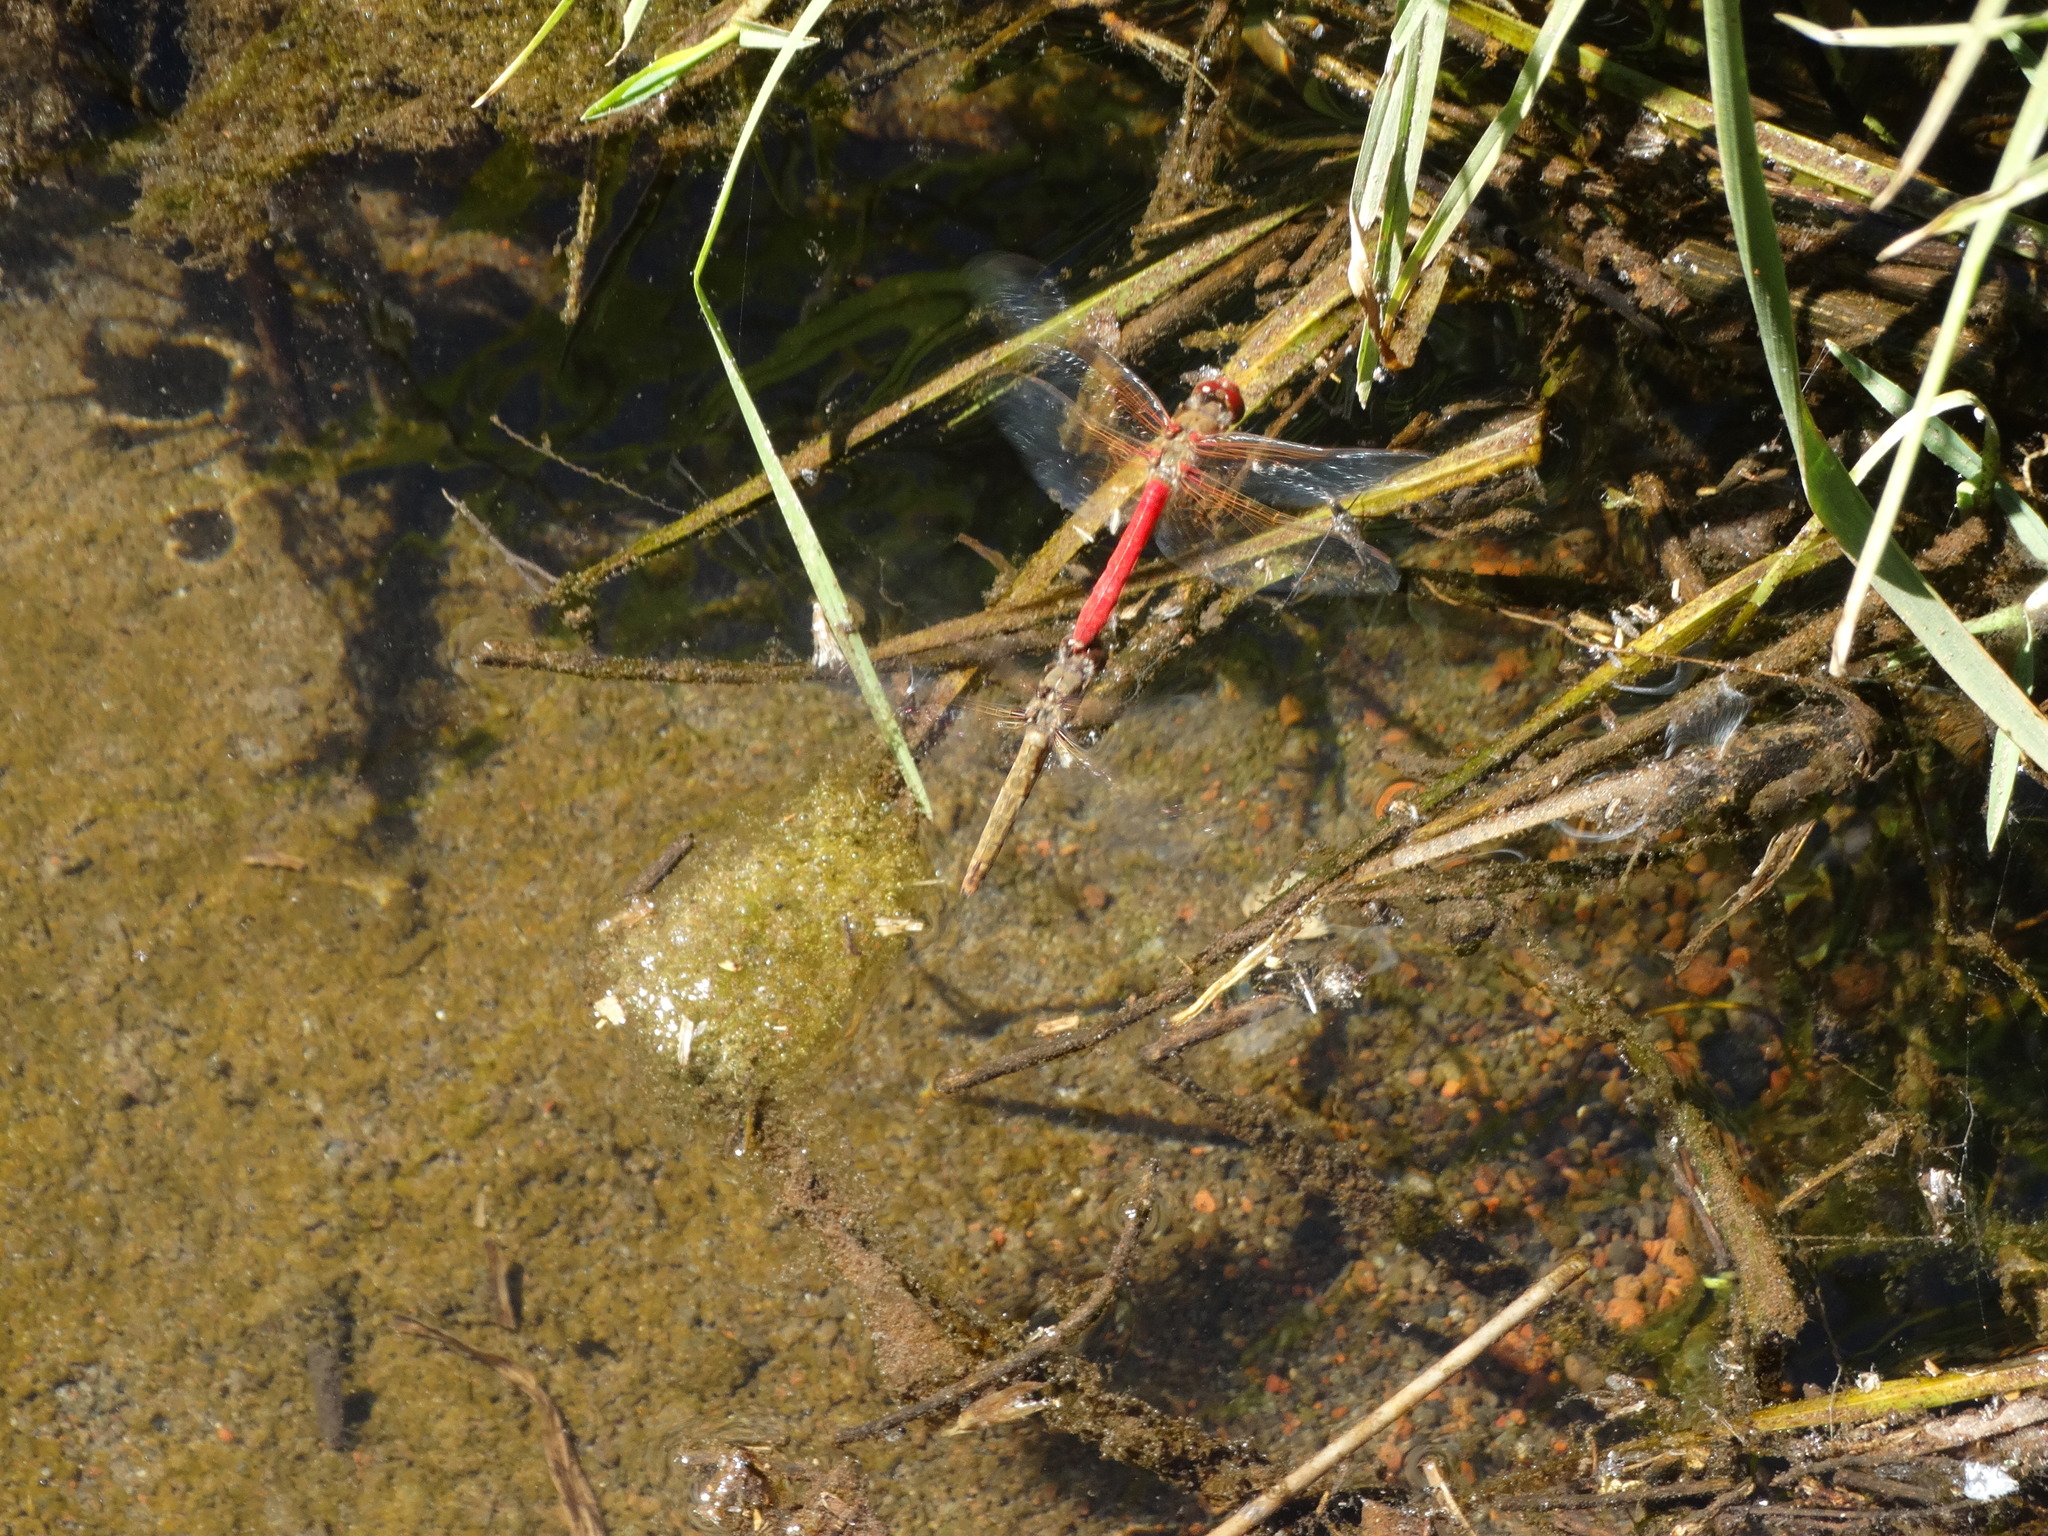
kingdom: Animalia
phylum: Arthropoda
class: Insecta
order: Odonata
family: Libellulidae
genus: Sympetrum
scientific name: Sympetrum illotum
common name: Cardinal meadowhawk
